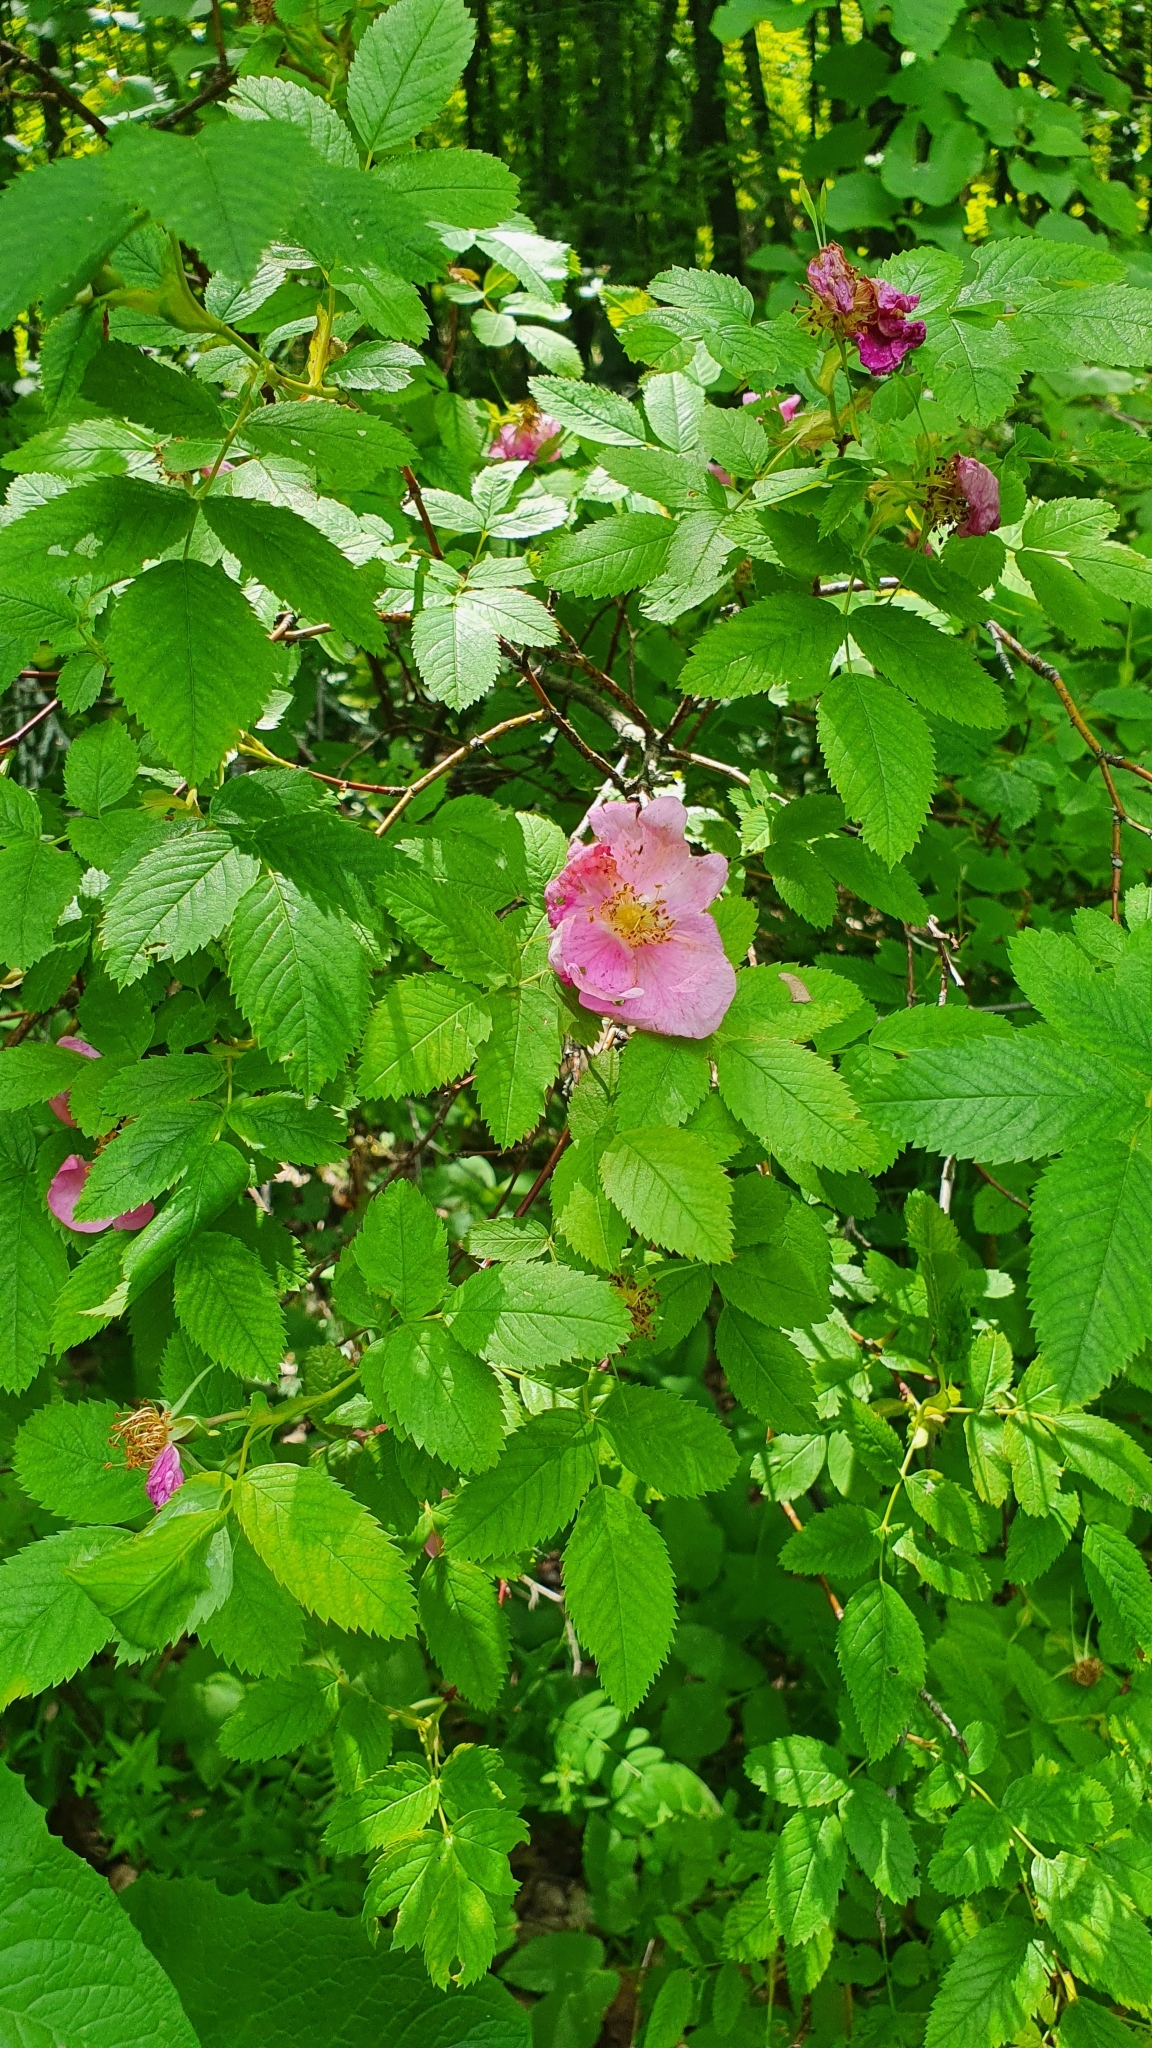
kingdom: Plantae
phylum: Tracheophyta
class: Magnoliopsida
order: Rosales
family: Rosaceae
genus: Rosa
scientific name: Rosa glabrifolia
